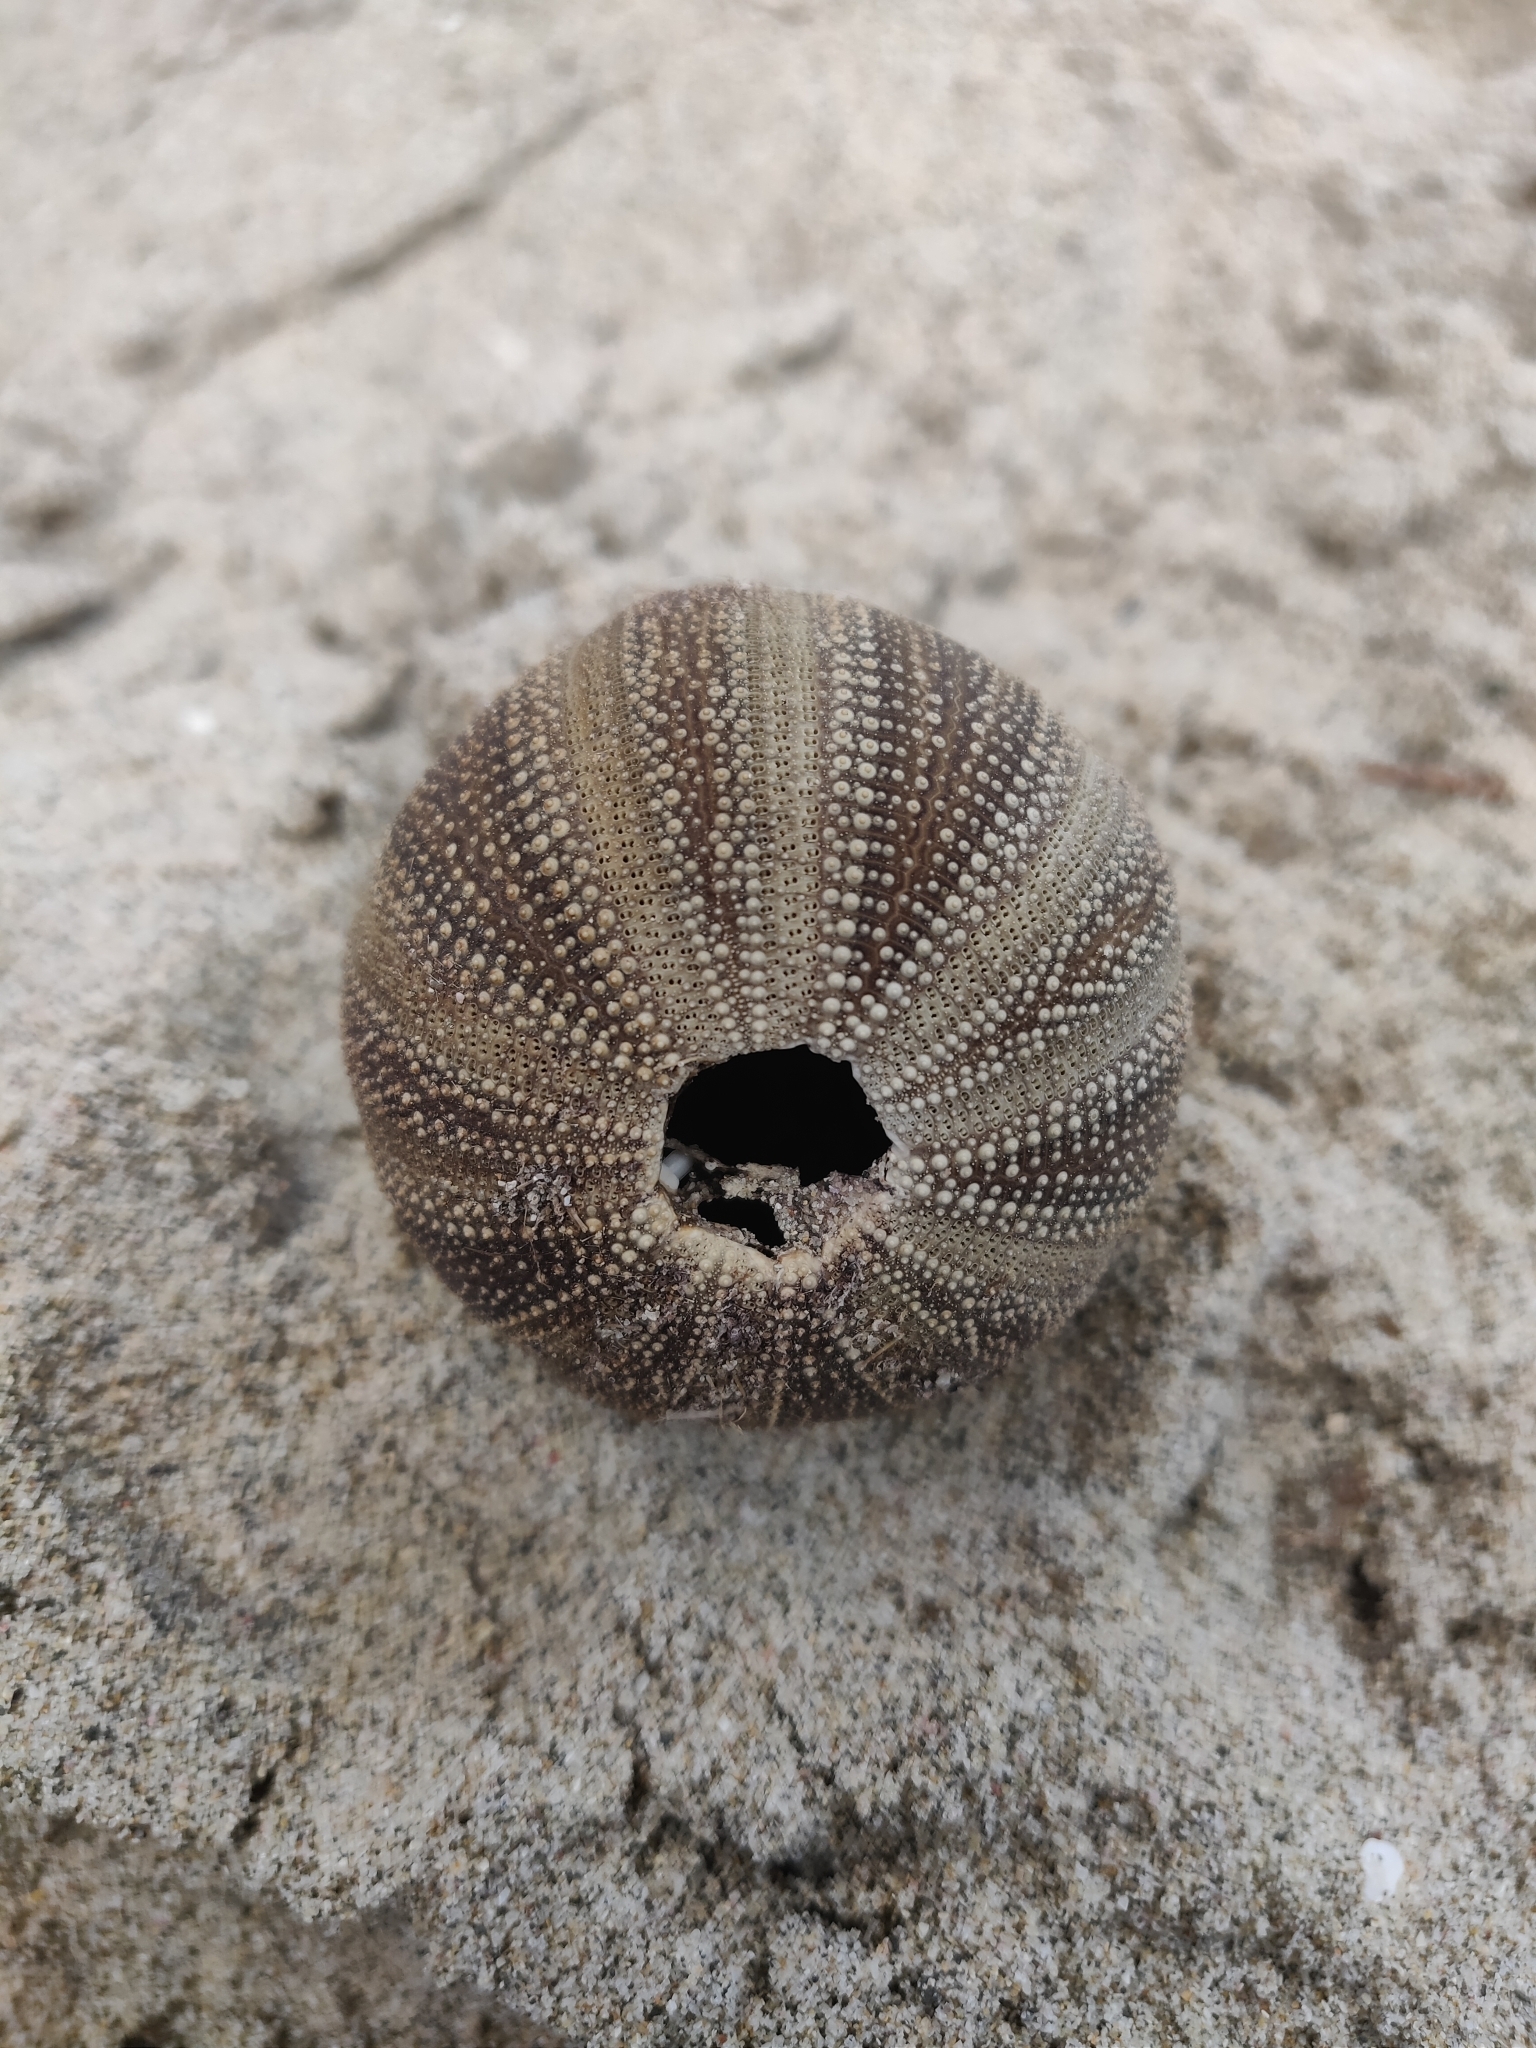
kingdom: Animalia
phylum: Echinodermata
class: Echinoidea
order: Camarodonta
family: Temnopleuridae
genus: Amblypneustes
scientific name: Amblypneustes ovum
